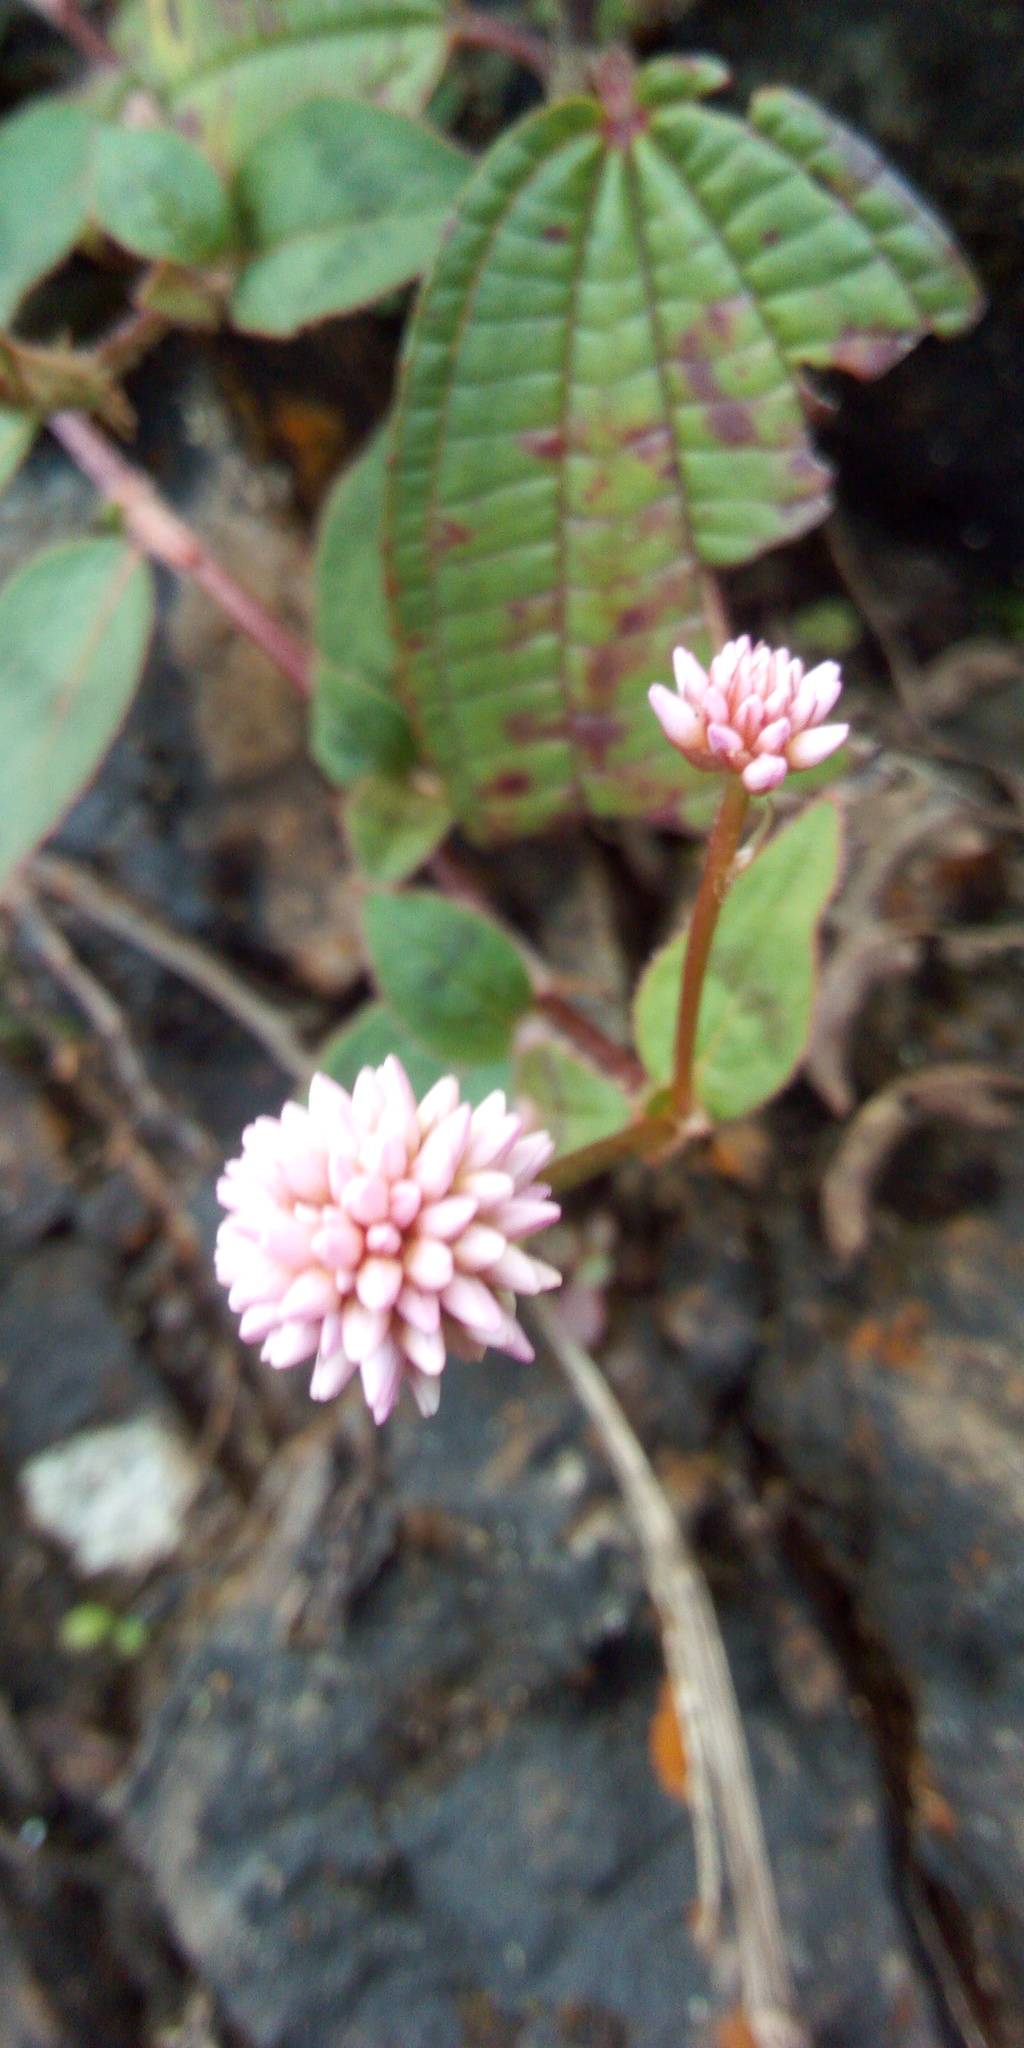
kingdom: Plantae
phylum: Tracheophyta
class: Magnoliopsida
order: Caryophyllales
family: Polygonaceae
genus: Persicaria
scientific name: Persicaria capitata
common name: Pinkhead smartweed
